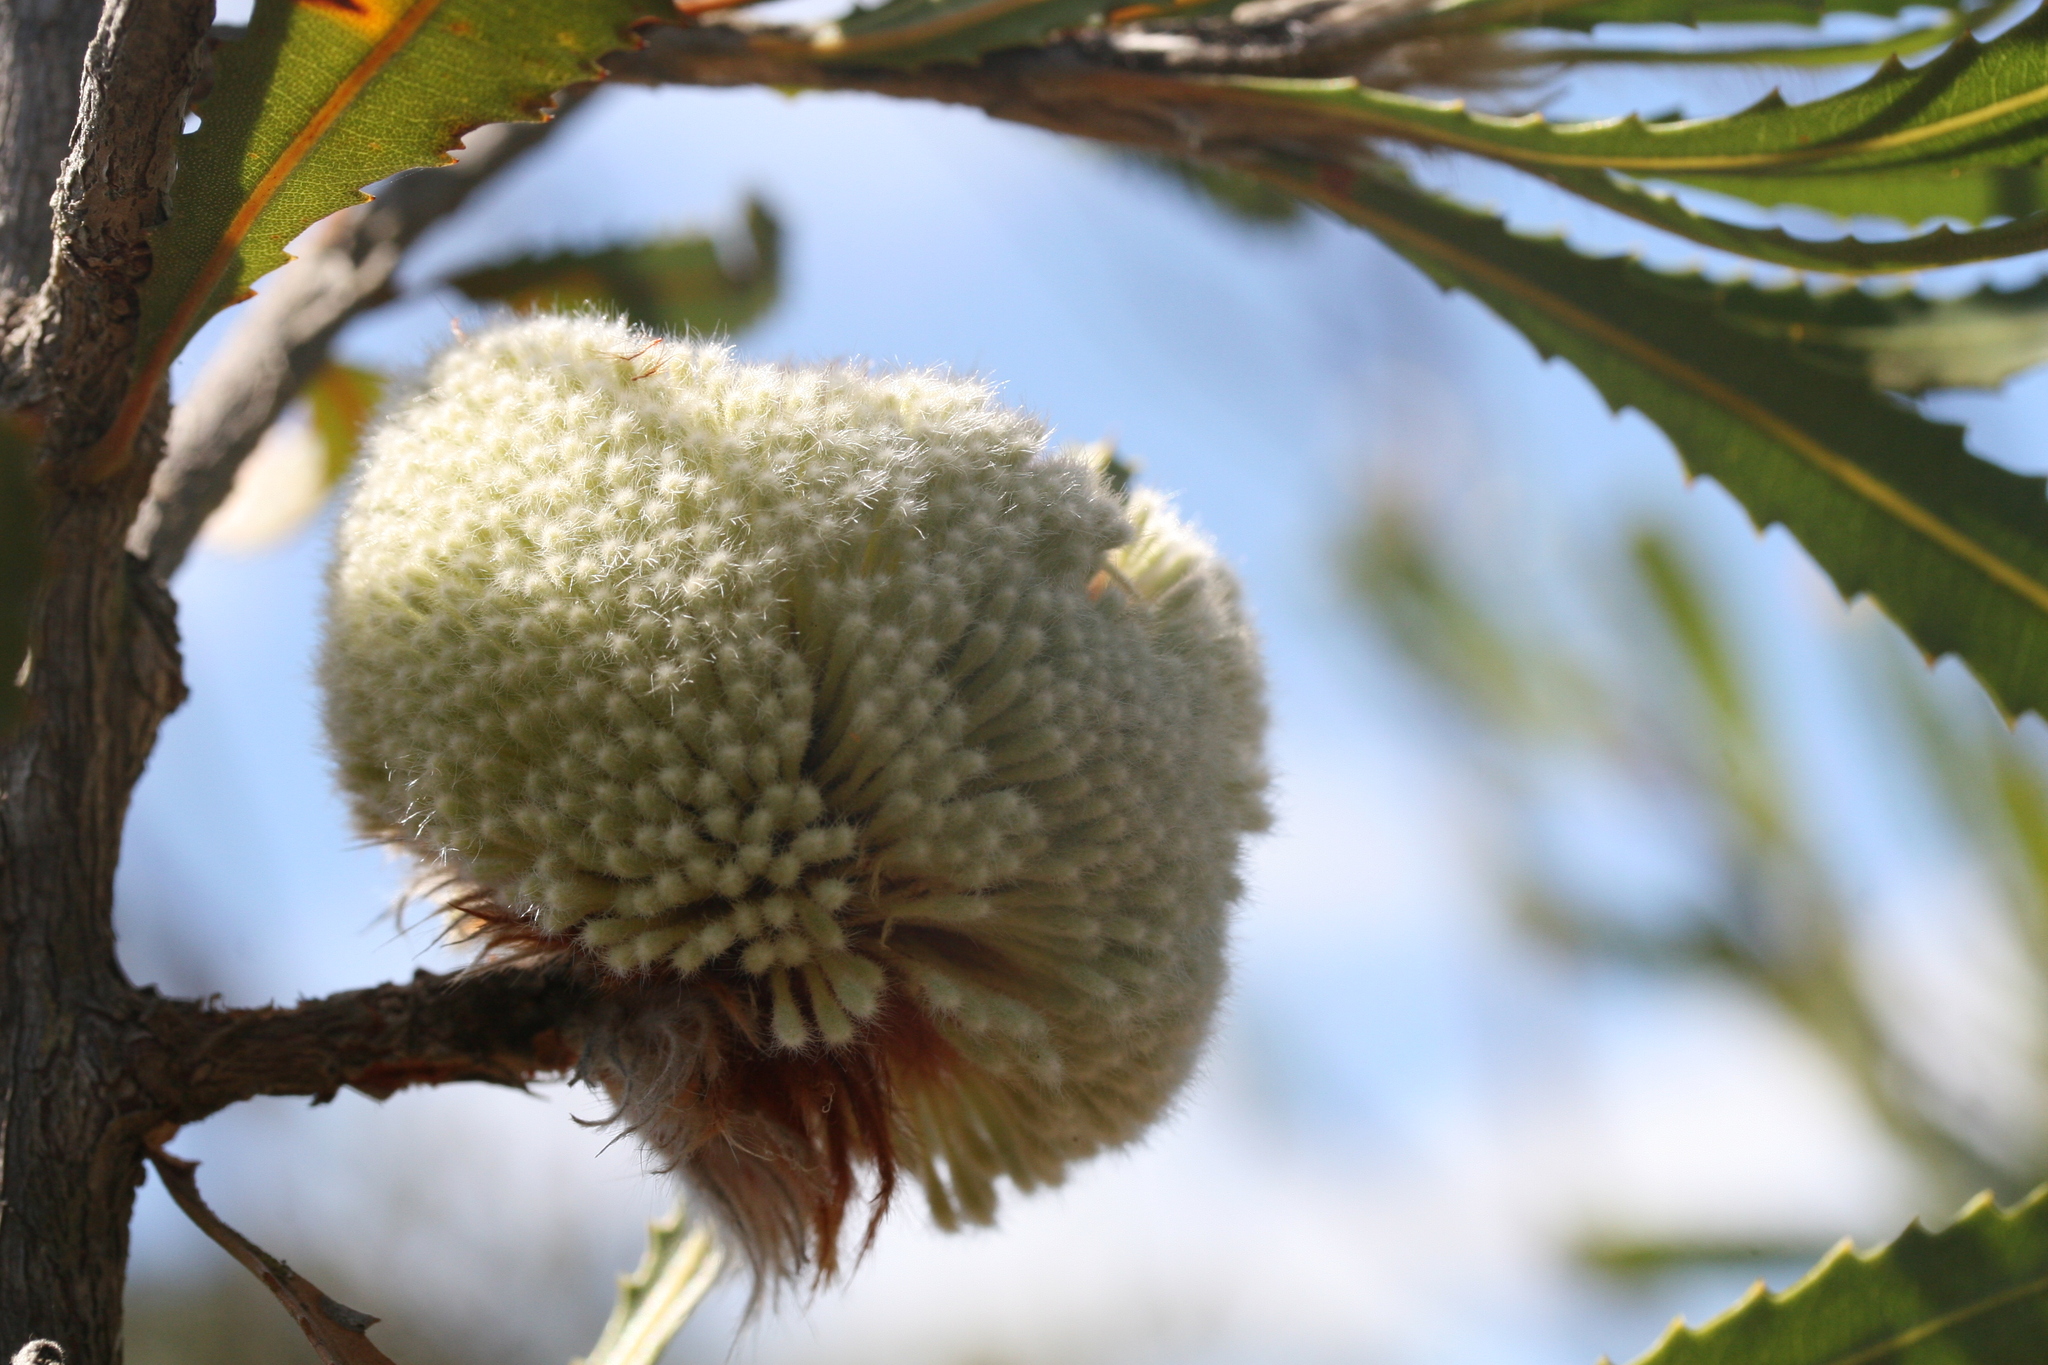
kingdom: Plantae
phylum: Tracheophyta
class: Magnoliopsida
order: Proteales
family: Proteaceae
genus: Banksia
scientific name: Banksia laevigata
